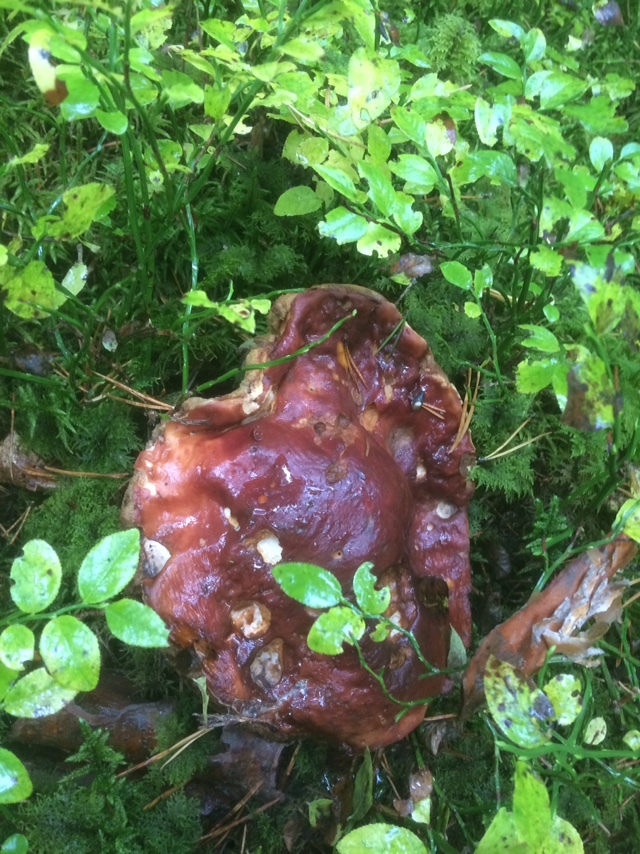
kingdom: Fungi
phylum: Basidiomycota
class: Agaricomycetes
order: Boletales
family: Boletaceae
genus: Boletus
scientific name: Boletus pinophilus
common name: Pine bolete
